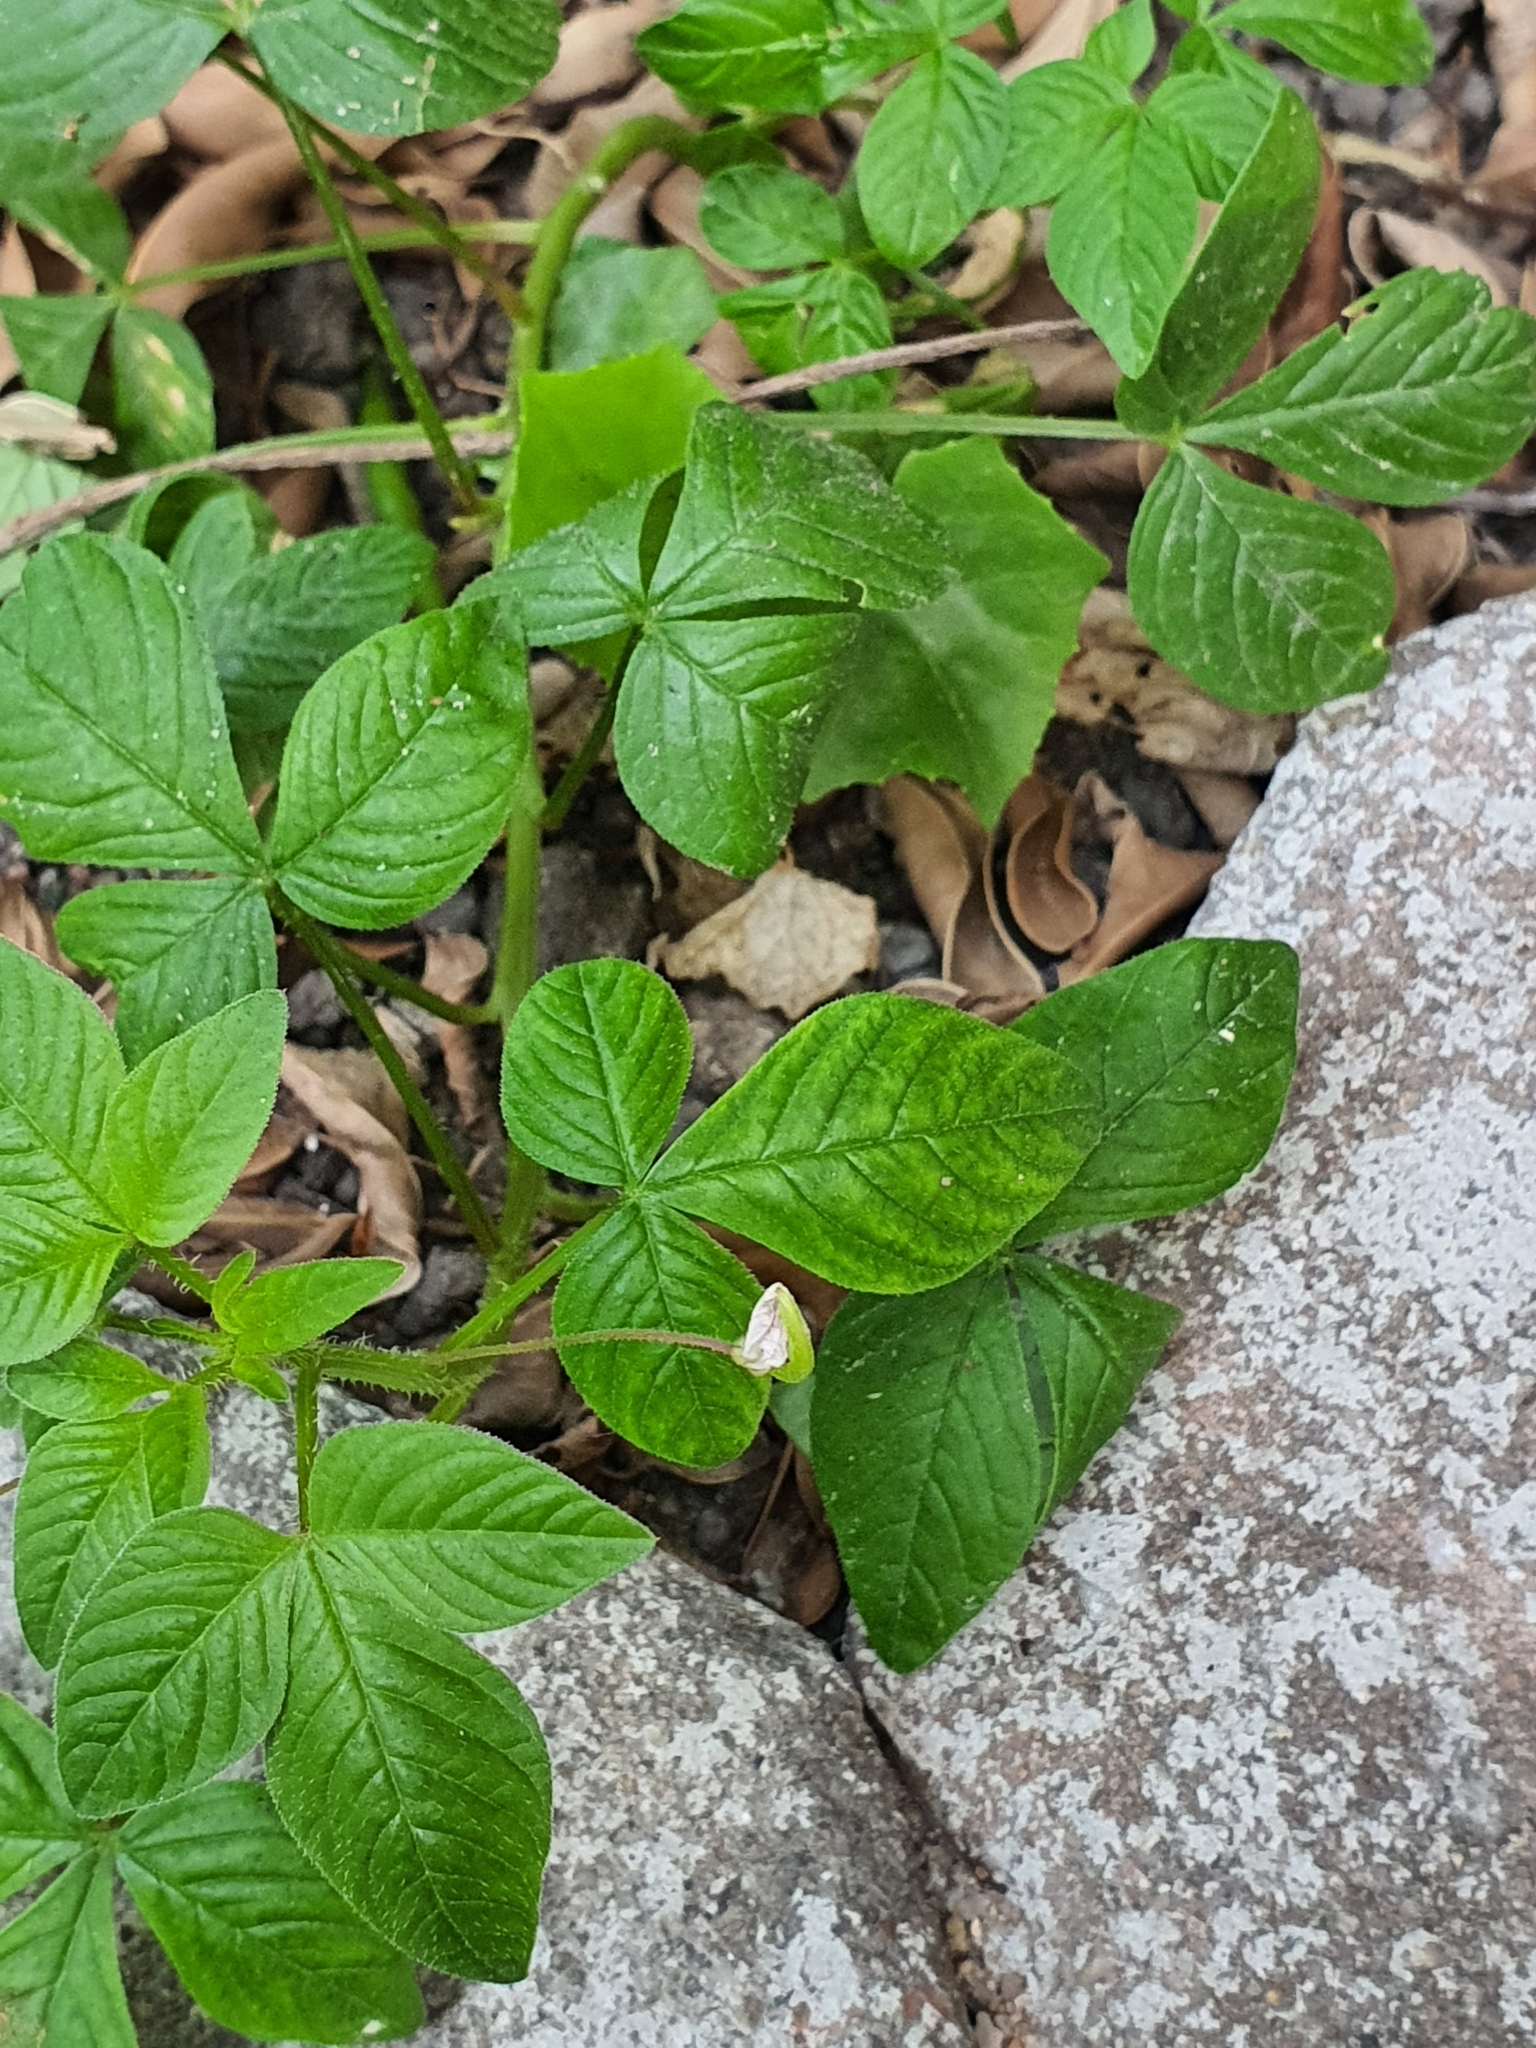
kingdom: Plantae
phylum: Tracheophyta
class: Magnoliopsida
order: Brassicales
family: Cleomaceae
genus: Sieruela
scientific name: Sieruela rutidosperma
